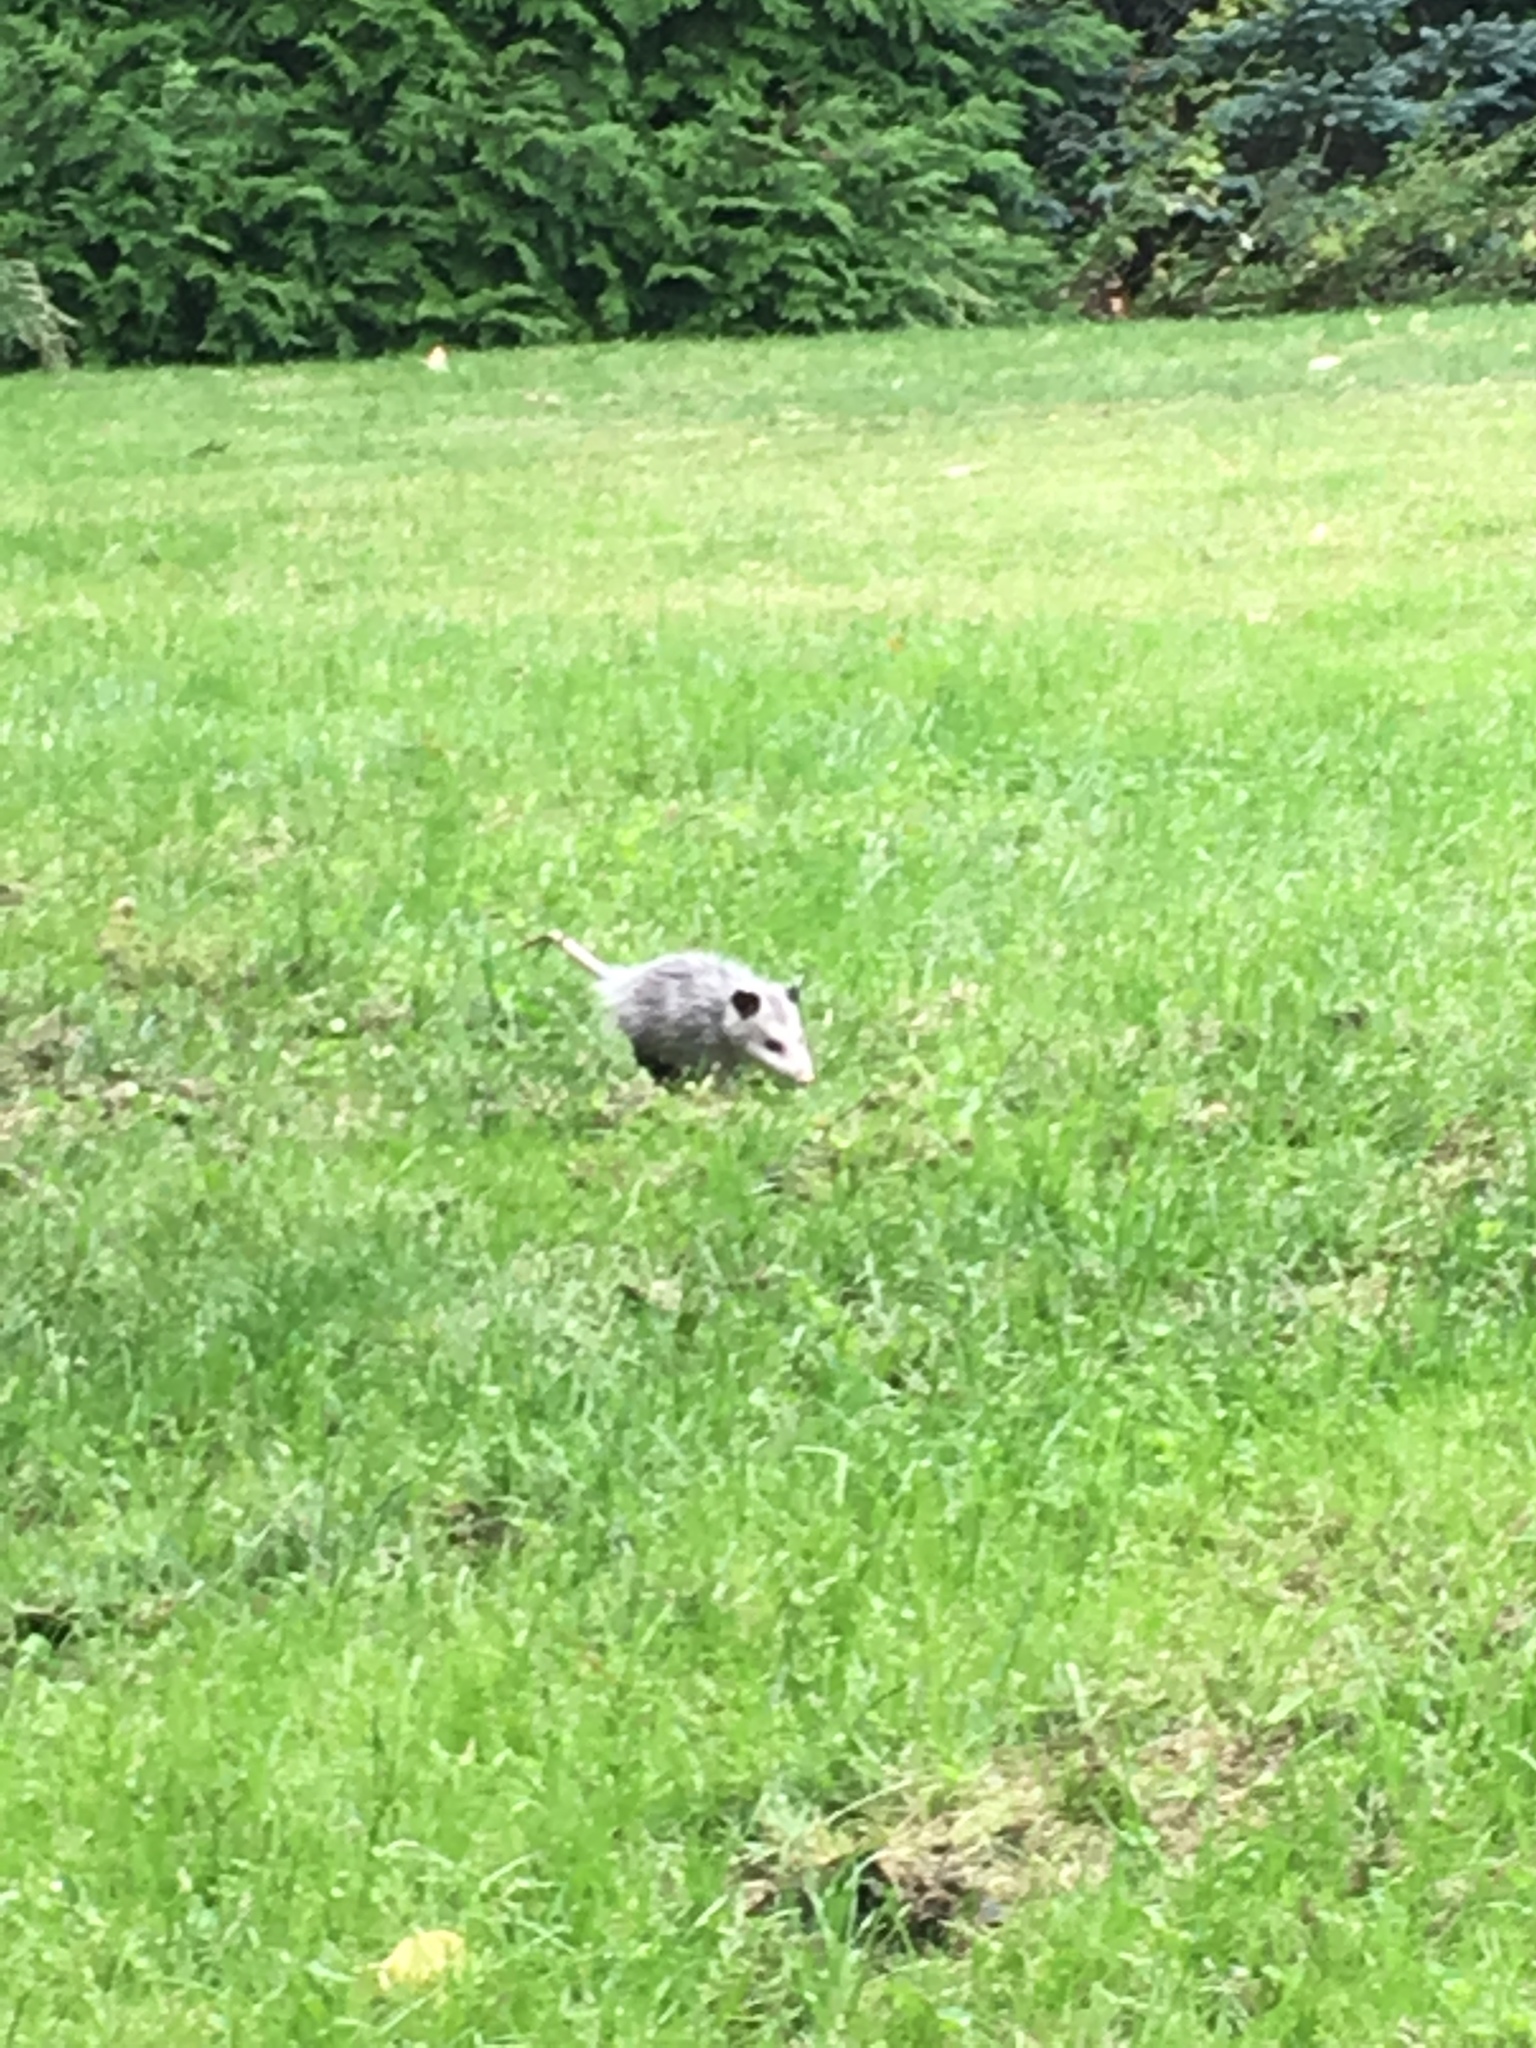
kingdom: Animalia
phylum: Chordata
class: Mammalia
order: Didelphimorphia
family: Didelphidae
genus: Didelphis
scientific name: Didelphis virginiana
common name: Virginia opossum
